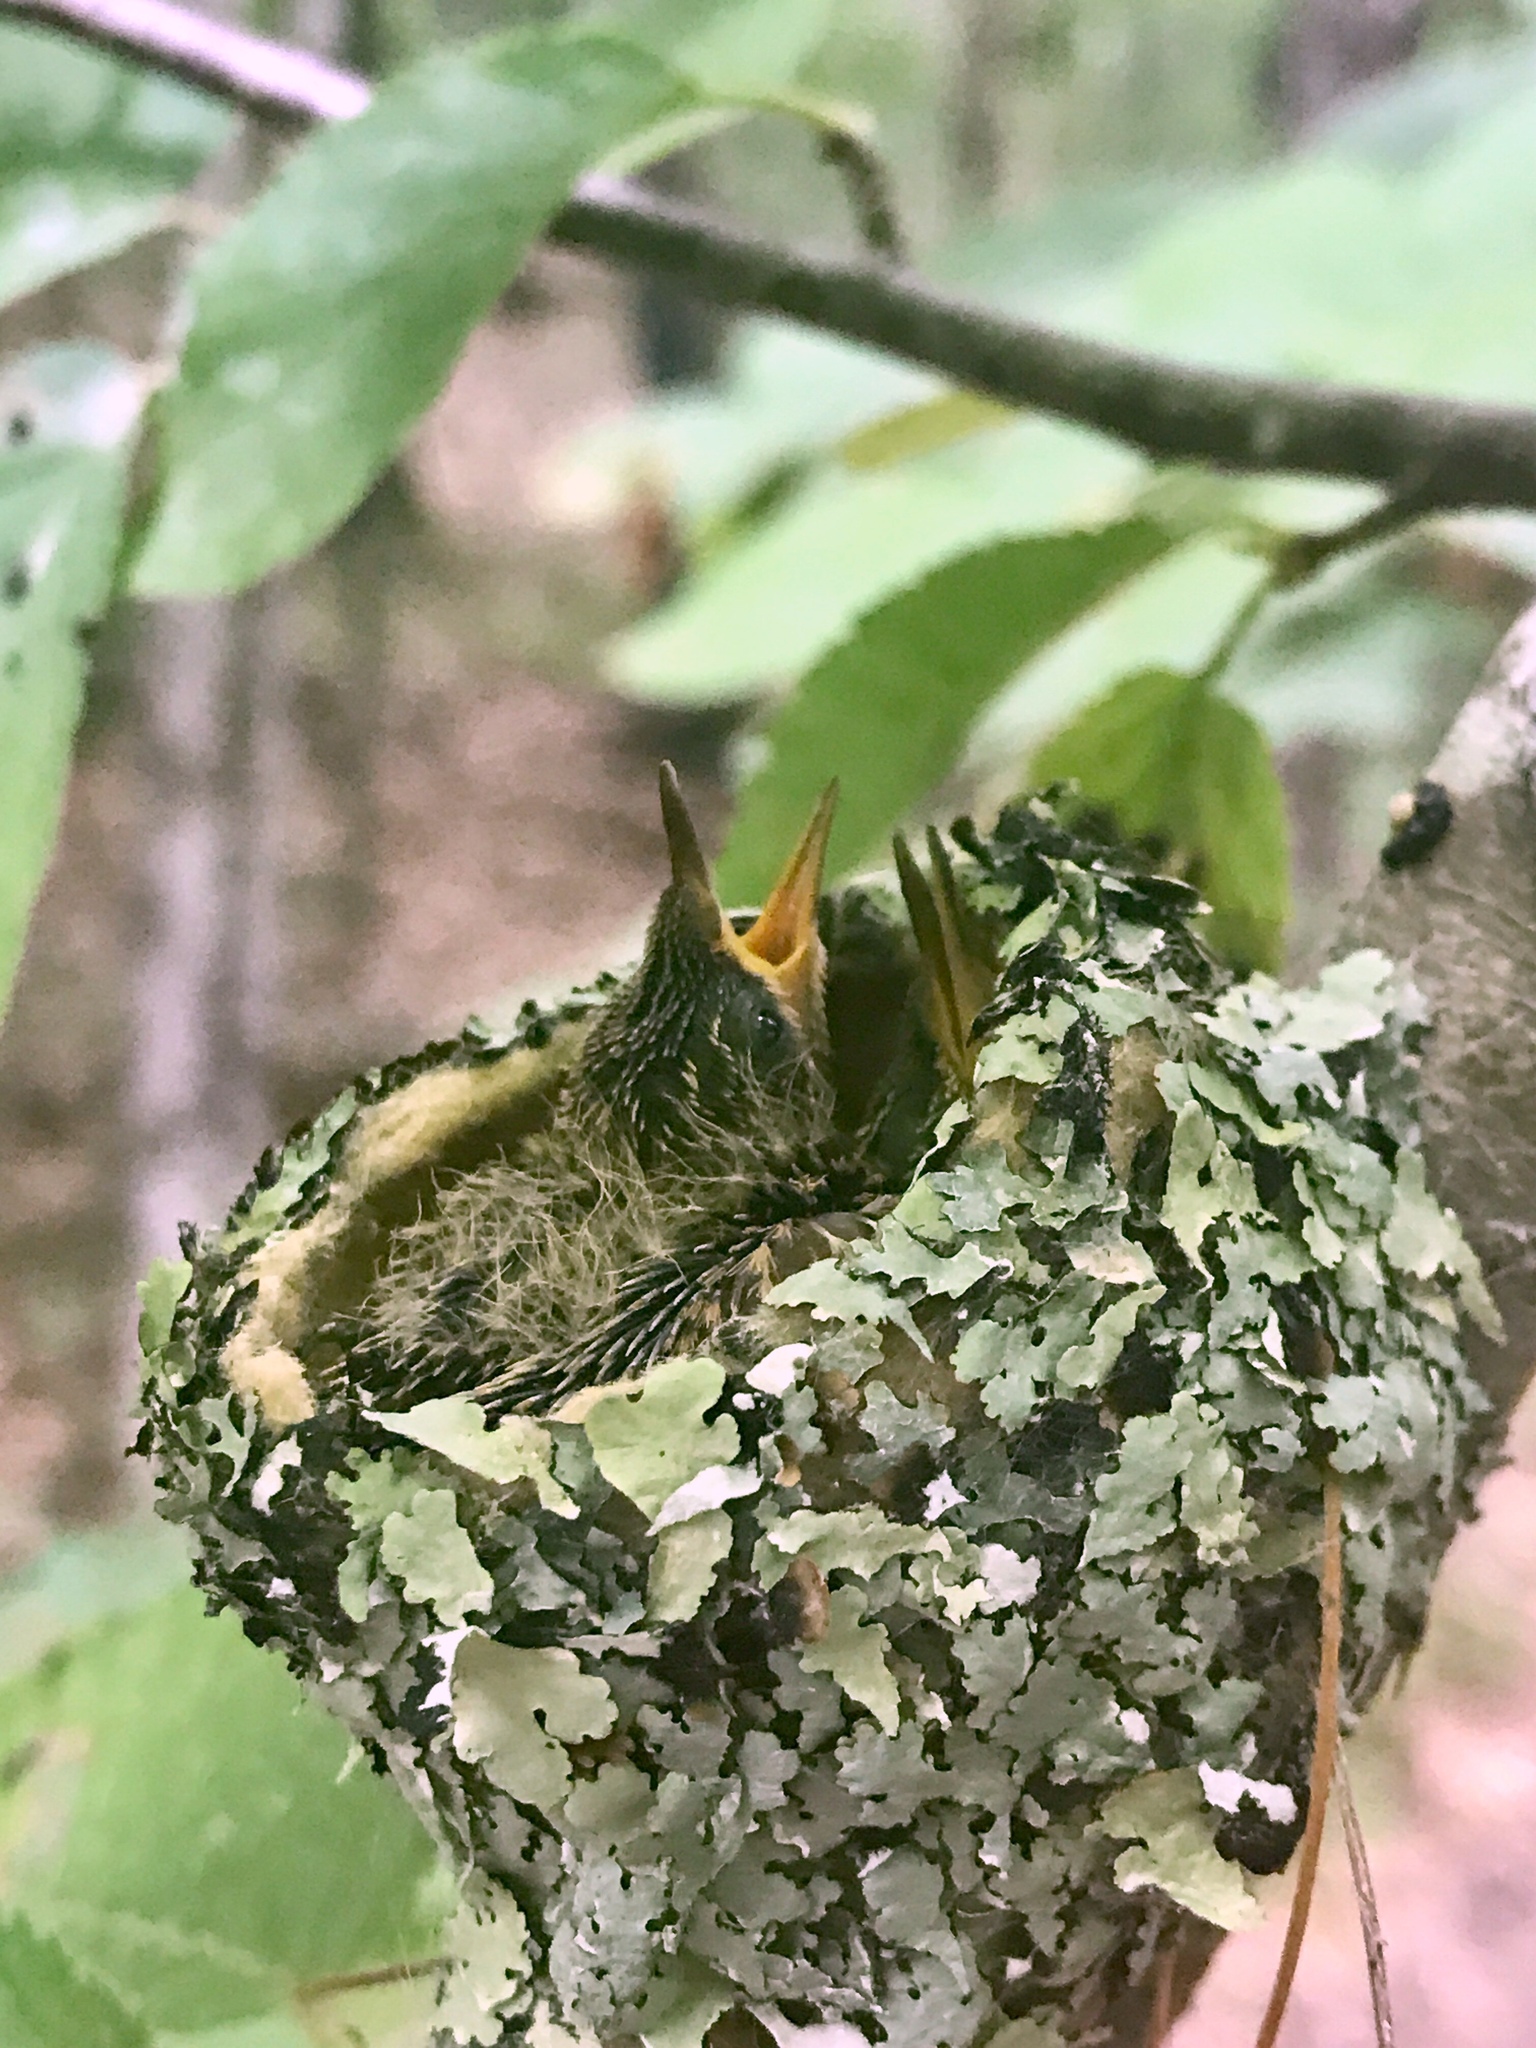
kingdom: Animalia
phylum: Chordata
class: Aves
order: Apodiformes
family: Trochilidae
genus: Archilochus
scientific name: Archilochus colubris
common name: Ruby-throated hummingbird
